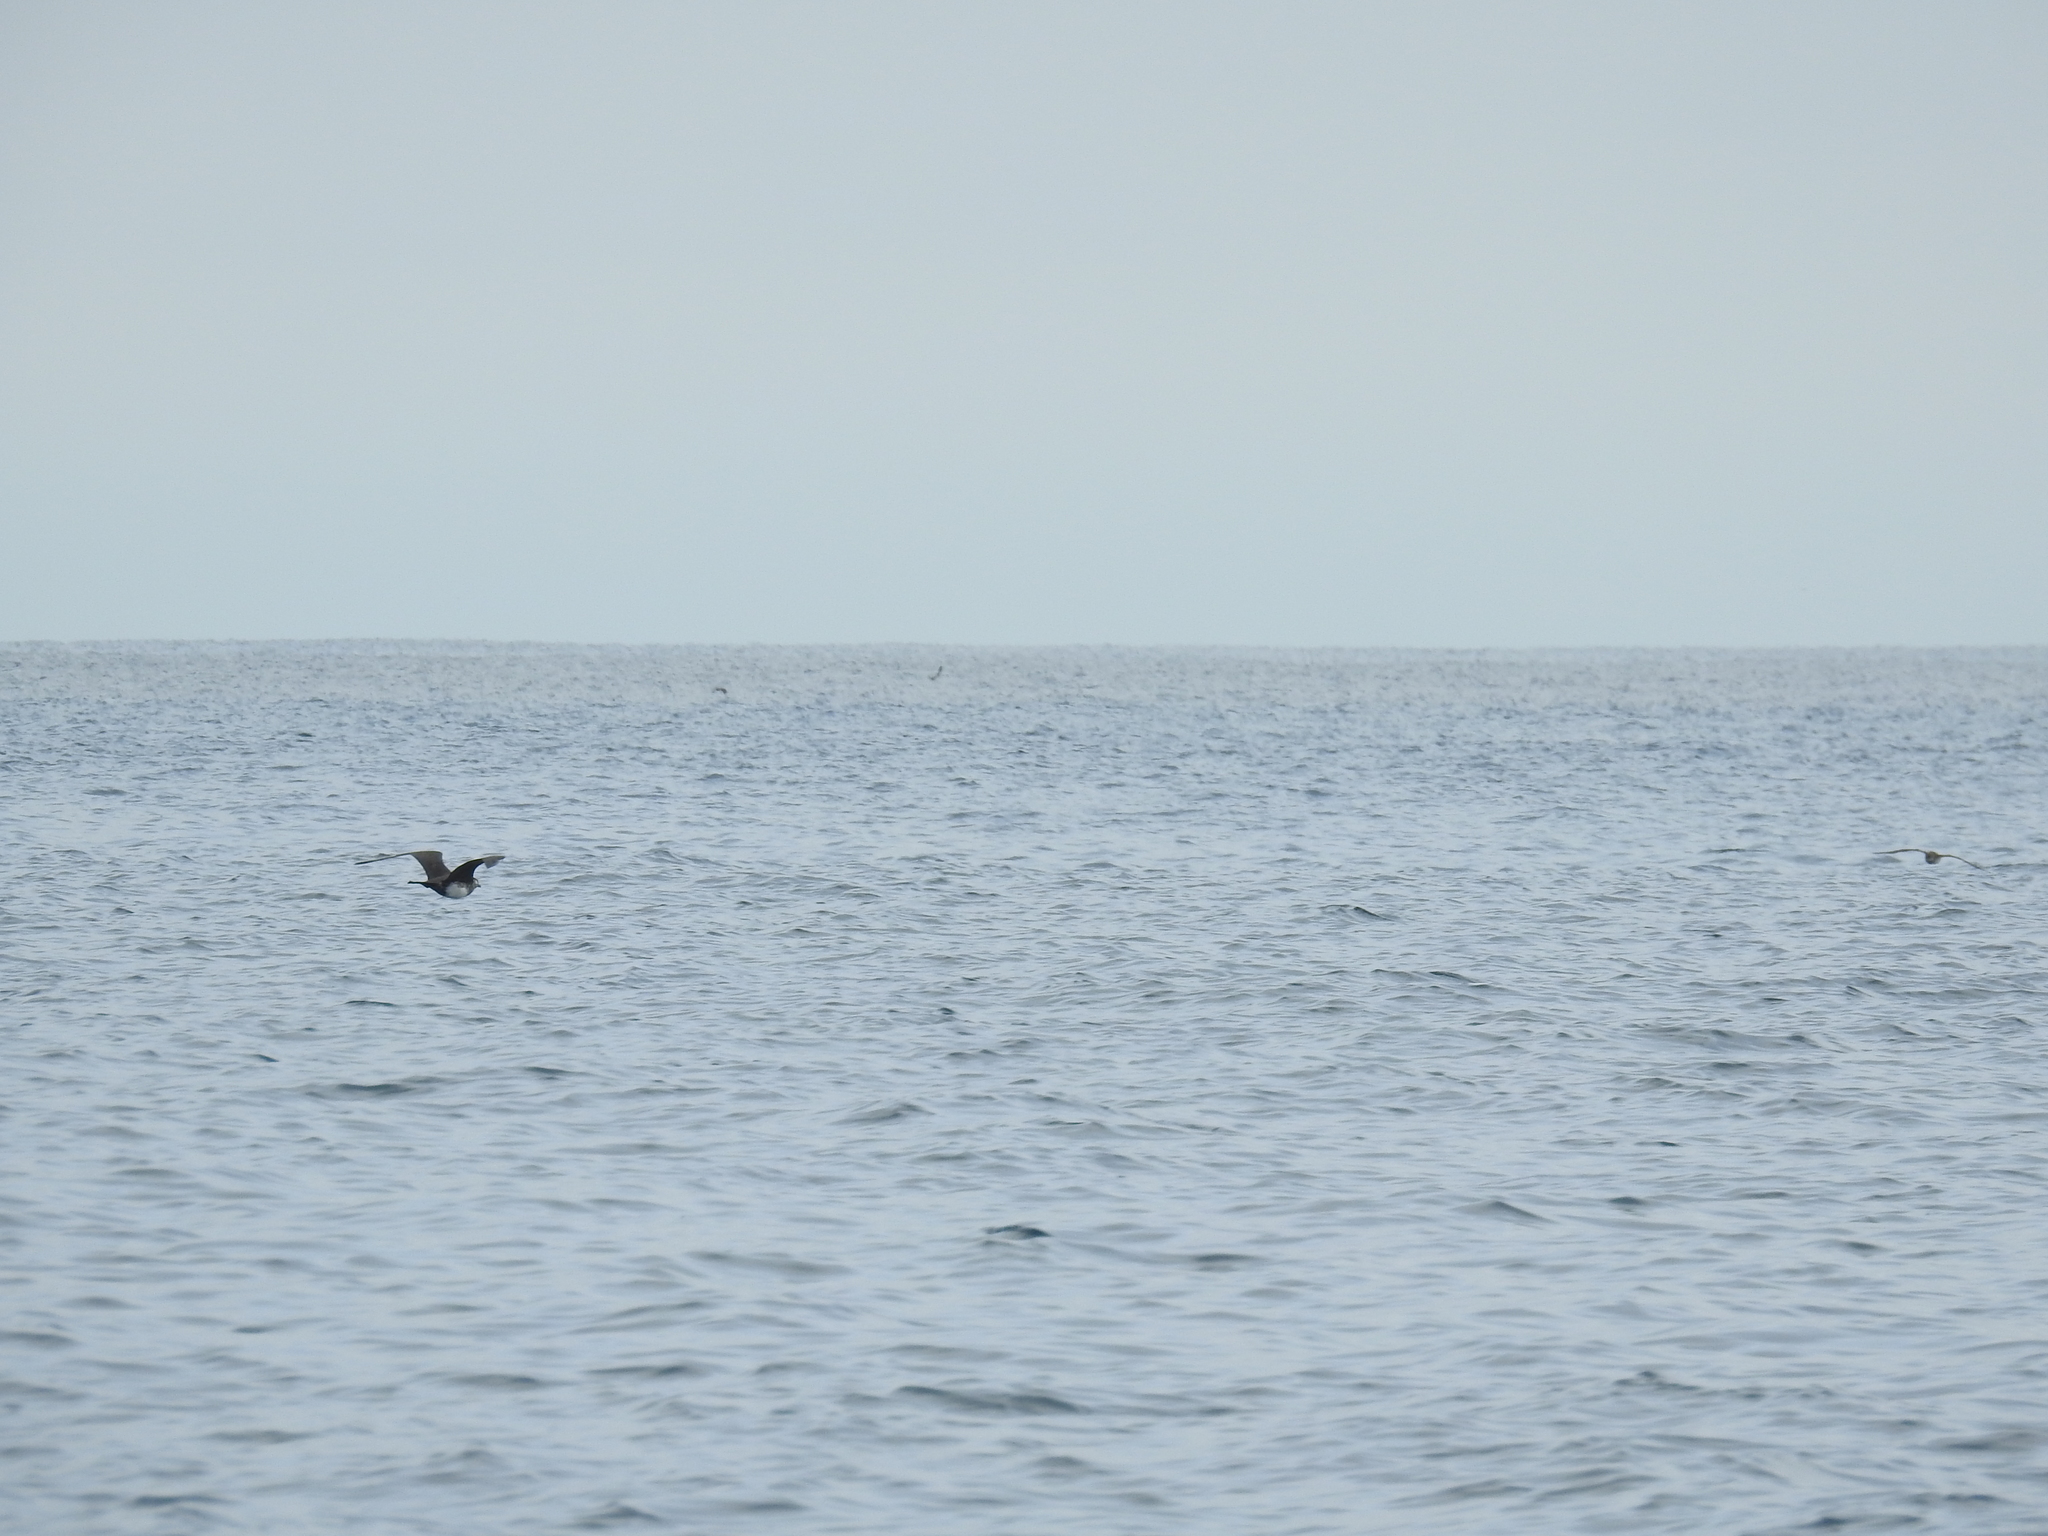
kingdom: Animalia
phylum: Chordata
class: Aves
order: Charadriiformes
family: Stercorariidae
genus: Stercorarius
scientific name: Stercorarius pomarinus
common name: Pomarine jaeger
